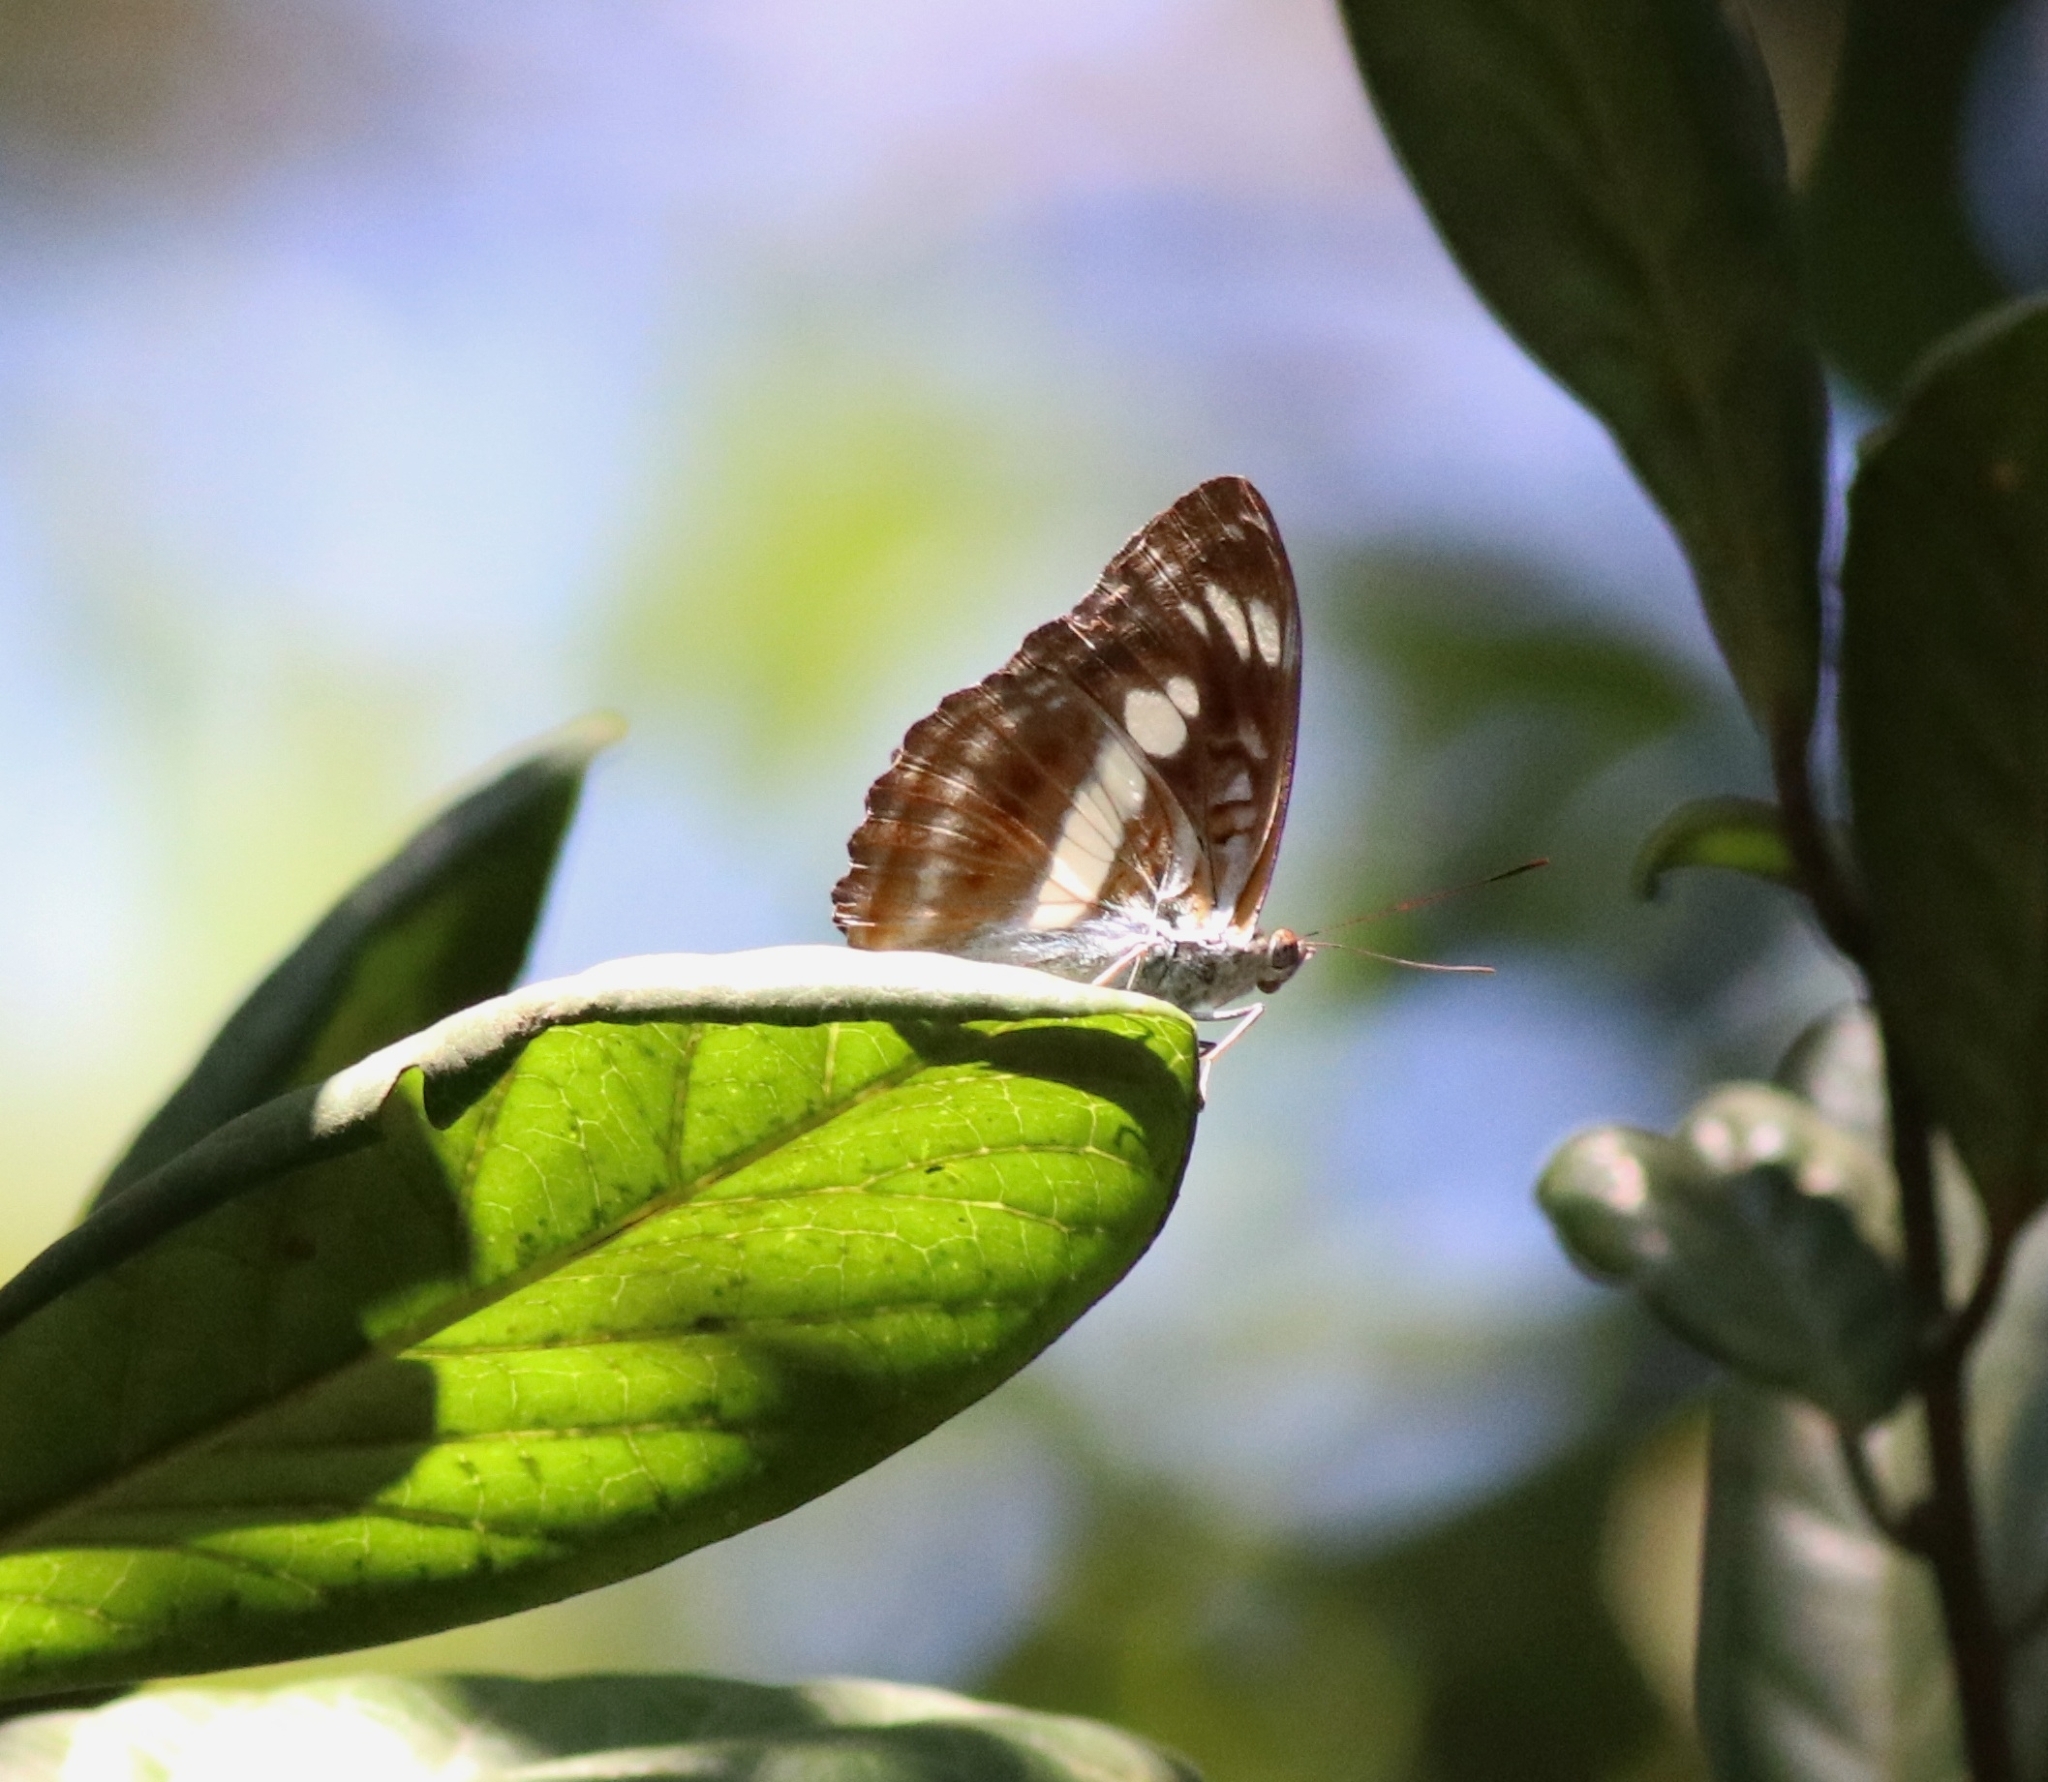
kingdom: Animalia
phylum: Arthropoda
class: Insecta
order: Lepidoptera
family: Nymphalidae
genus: Parathyma
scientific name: Parathyma selenophora
